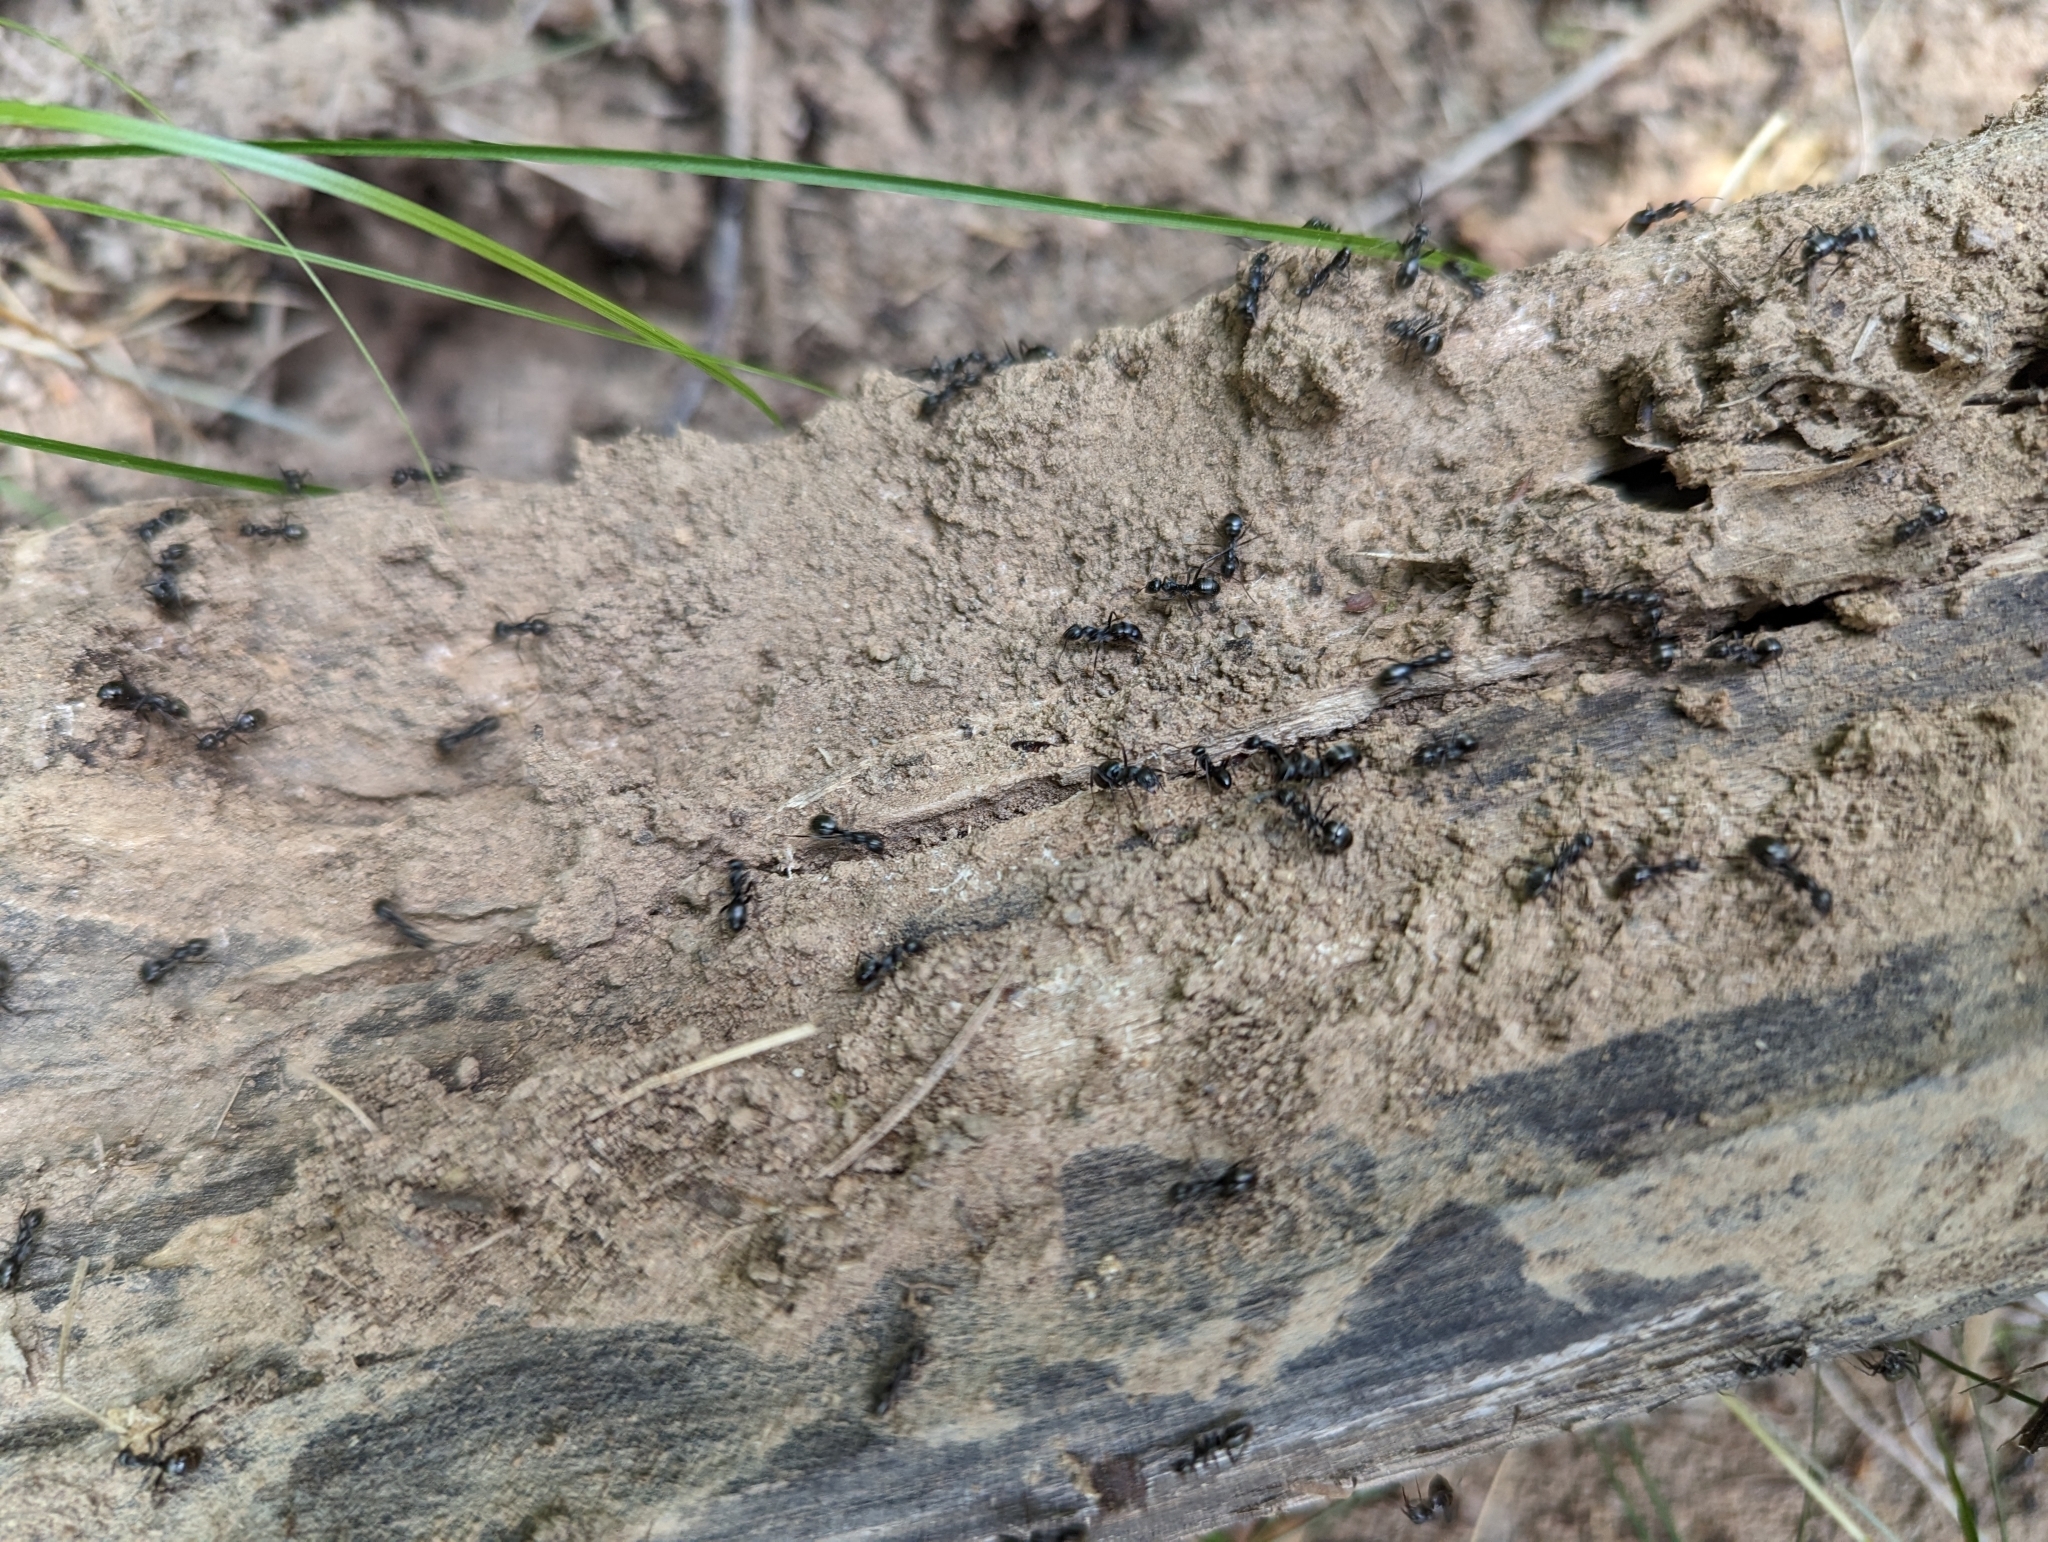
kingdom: Animalia
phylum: Arthropoda
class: Insecta
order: Hymenoptera
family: Formicidae
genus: Formica
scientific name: Formica subsericea
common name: Silky field ant
